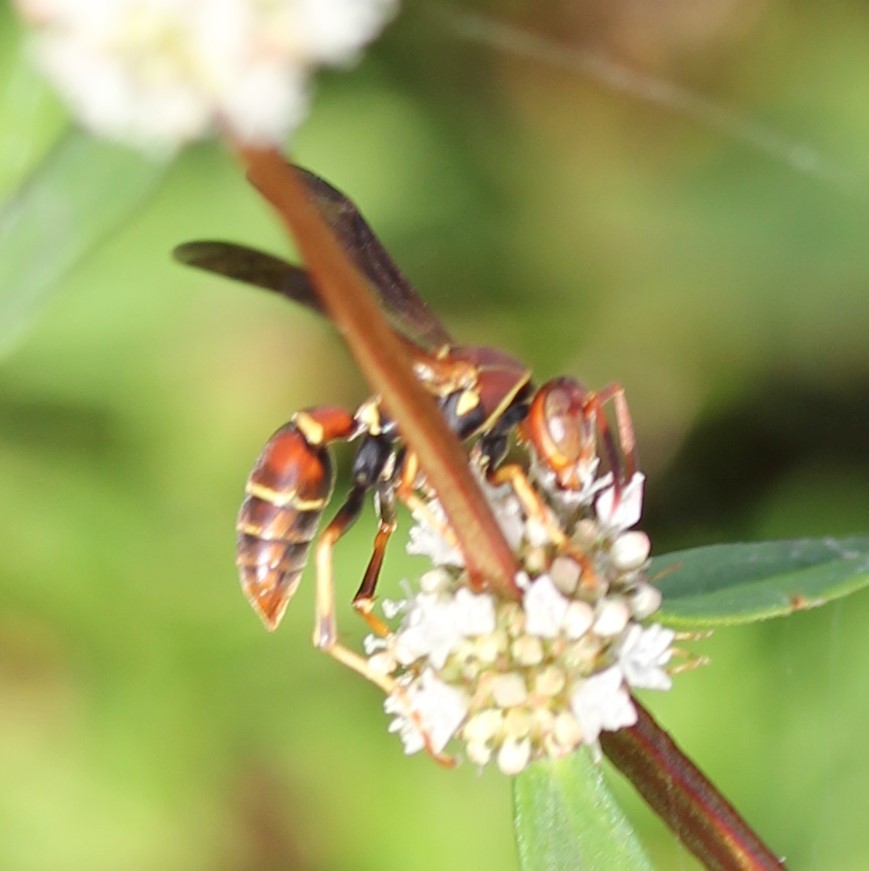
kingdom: Animalia
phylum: Arthropoda
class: Insecta
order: Hymenoptera
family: Eumenidae
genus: Polistes
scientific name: Polistes dorsalis
